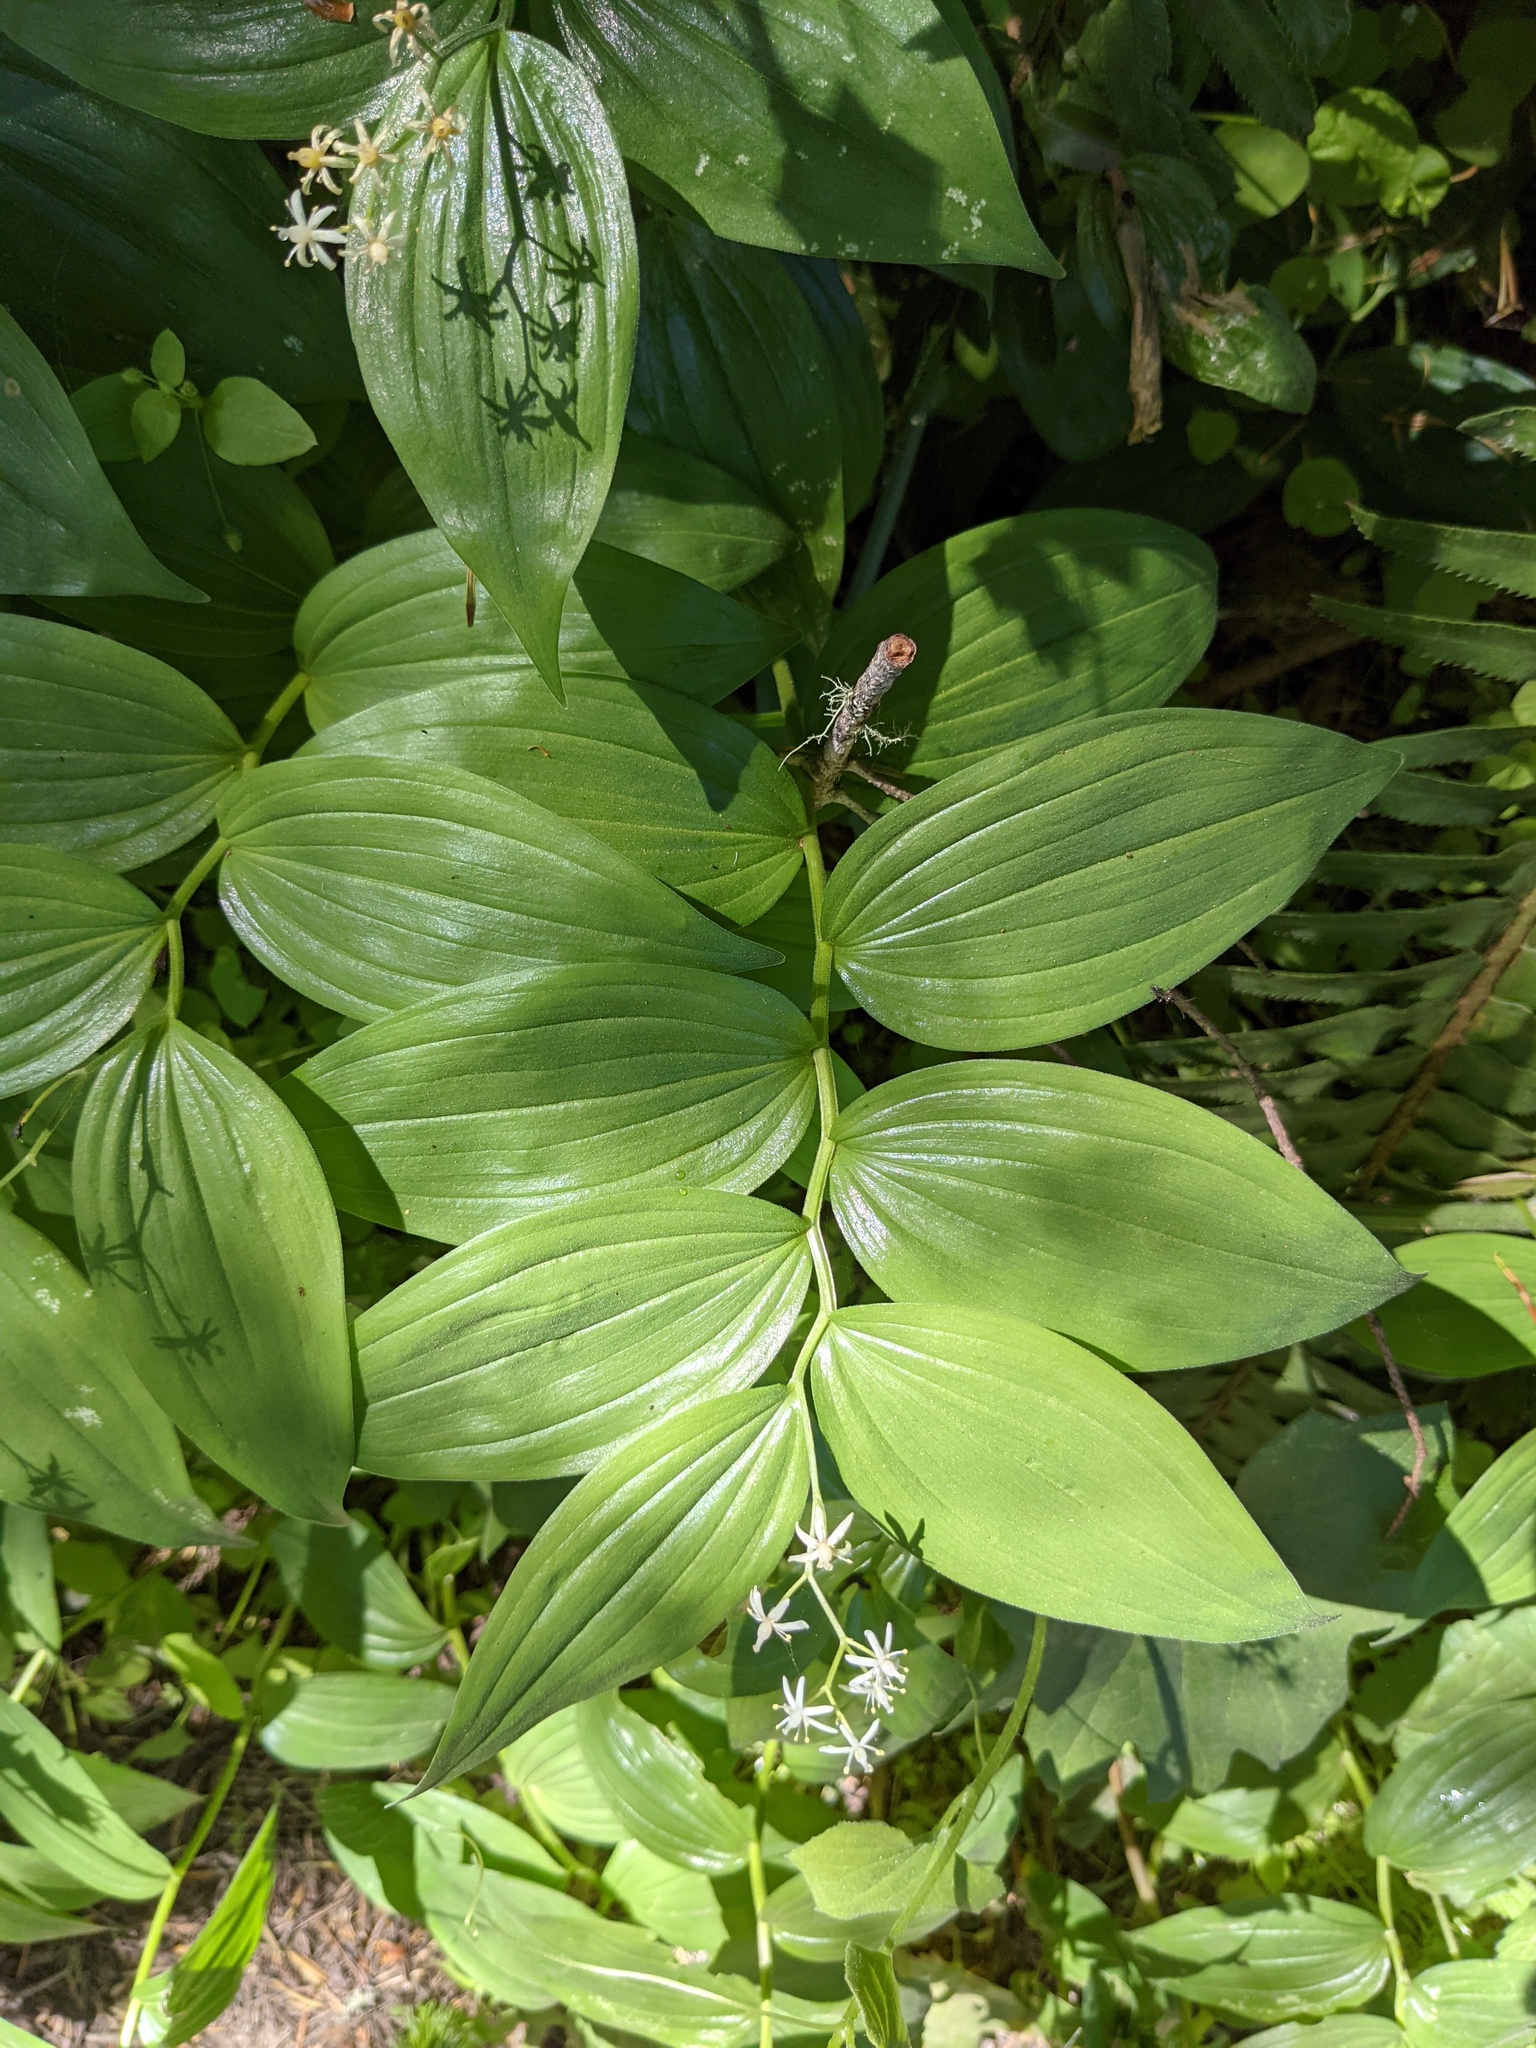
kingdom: Plantae
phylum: Tracheophyta
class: Liliopsida
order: Asparagales
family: Asparagaceae
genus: Maianthemum
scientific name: Maianthemum stellatum
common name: Little false solomon's seal
